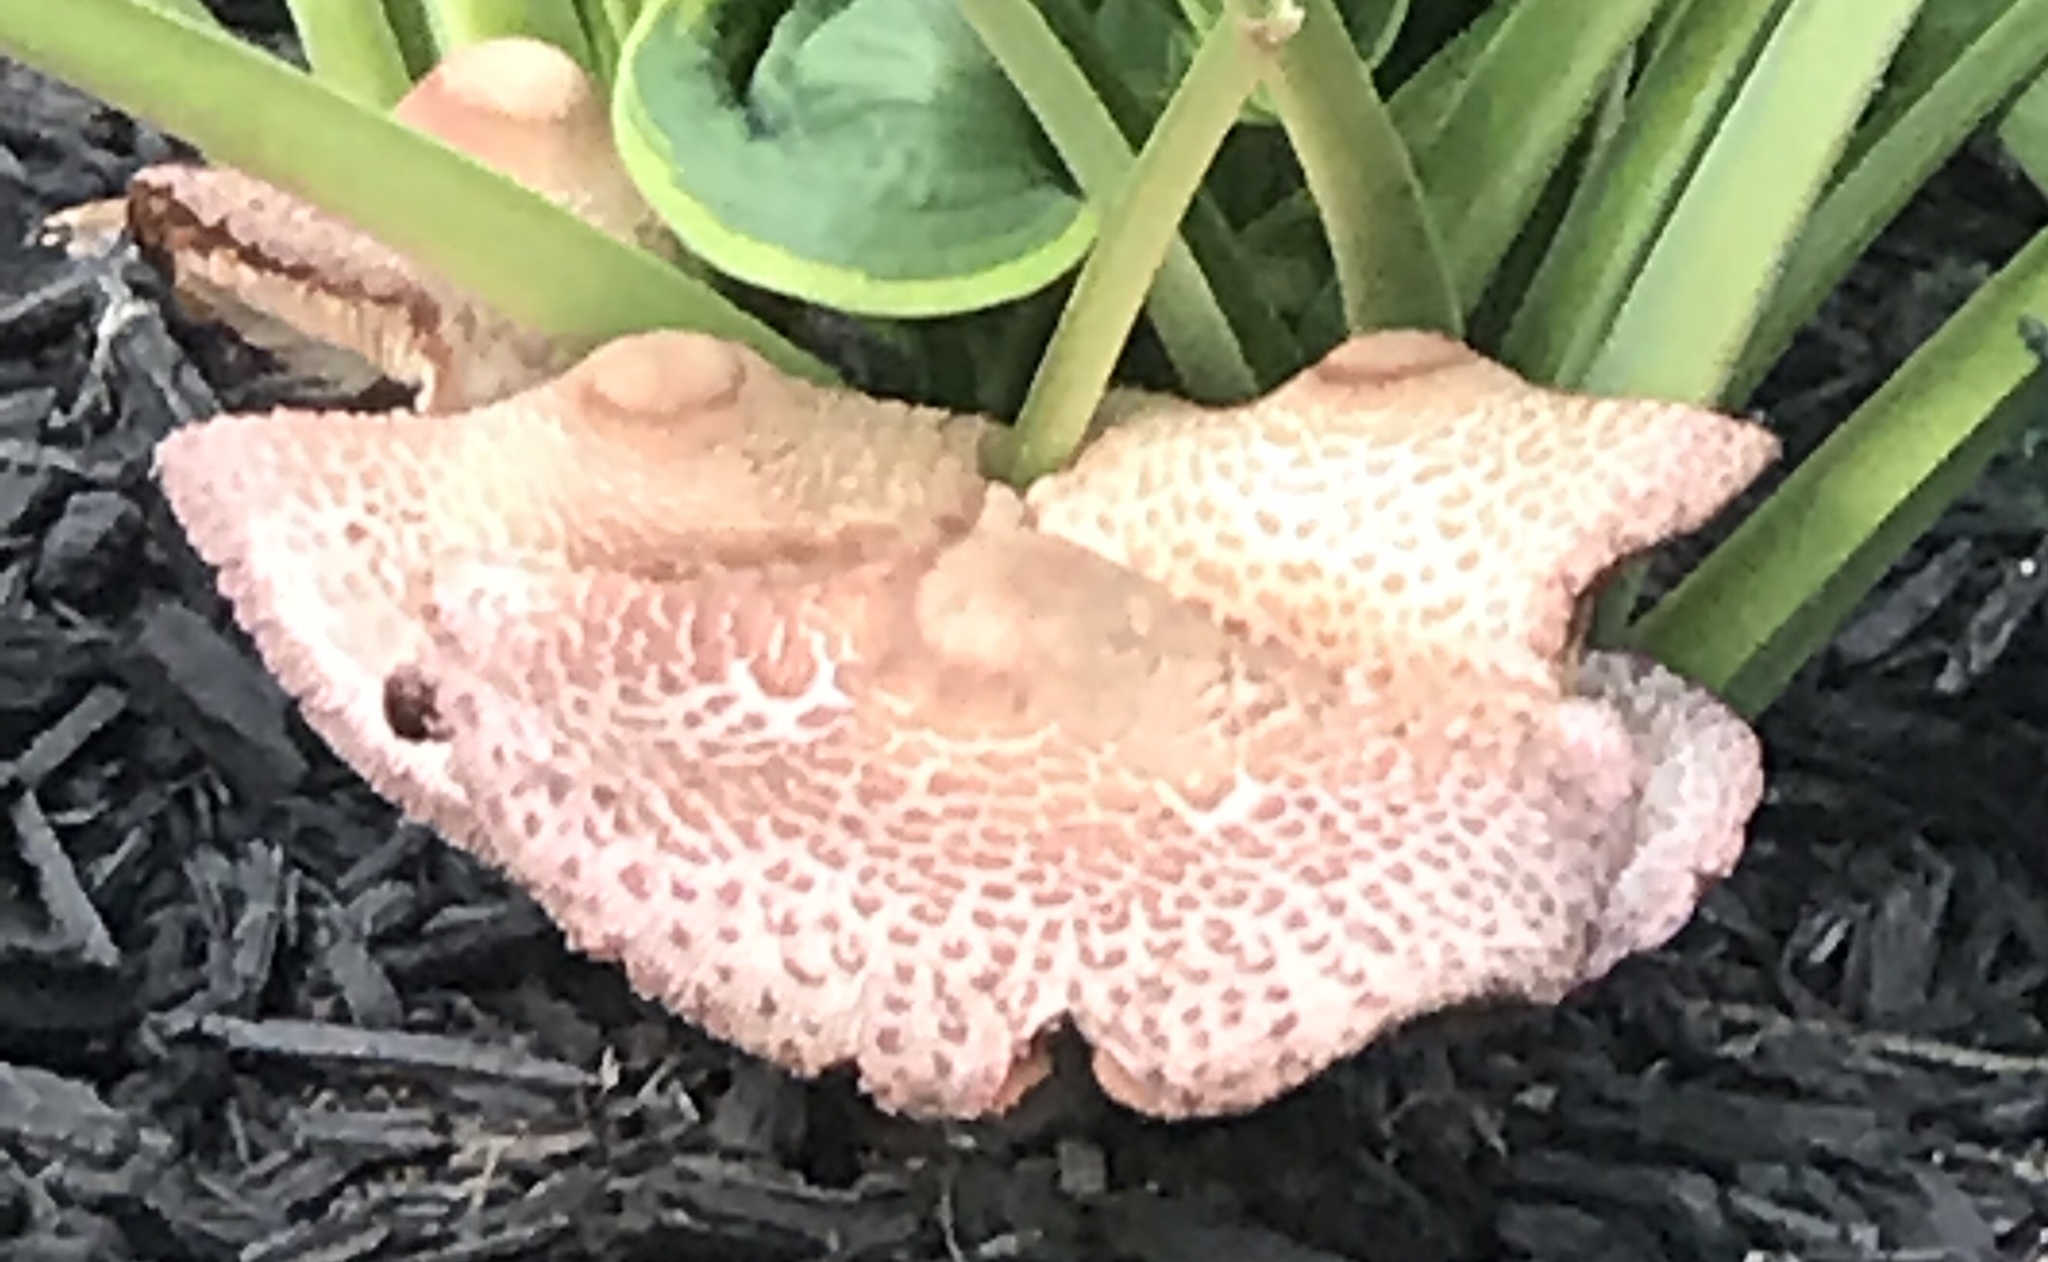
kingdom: Fungi
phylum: Basidiomycota
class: Agaricomycetes
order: Polyporales
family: Polyporaceae
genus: Cerioporus
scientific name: Cerioporus squamosus
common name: Dryad's saddle
